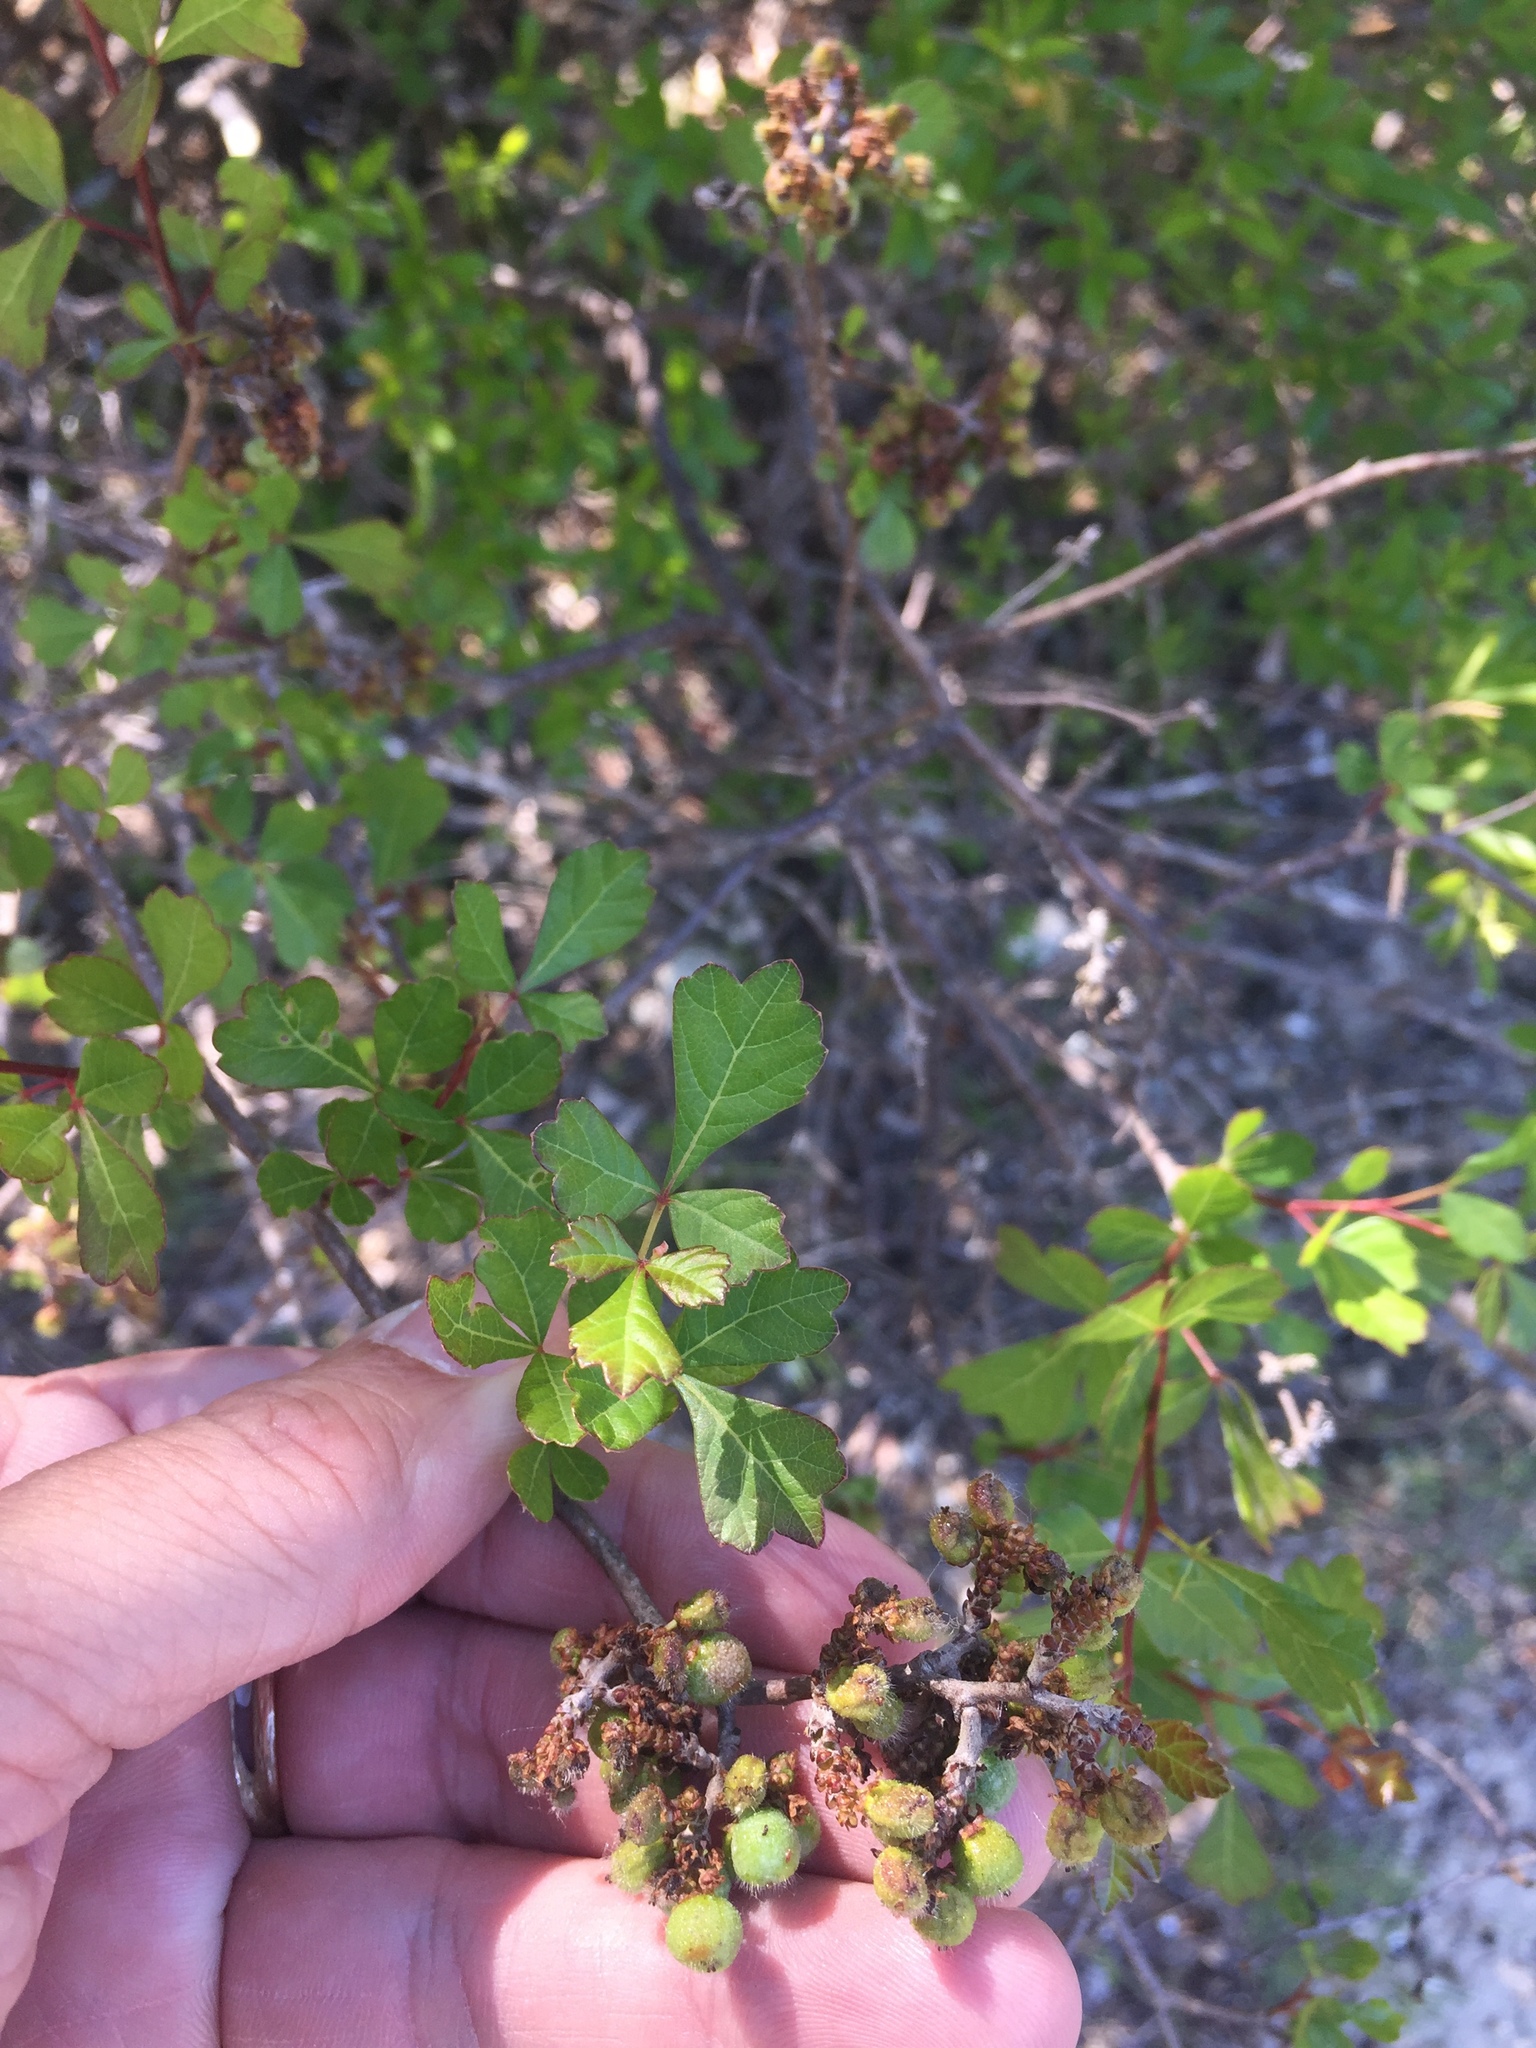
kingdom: Plantae
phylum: Tracheophyta
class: Magnoliopsida
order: Sapindales
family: Anacardiaceae
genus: Rhus
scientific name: Rhus aromatica
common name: Aromatic sumac
